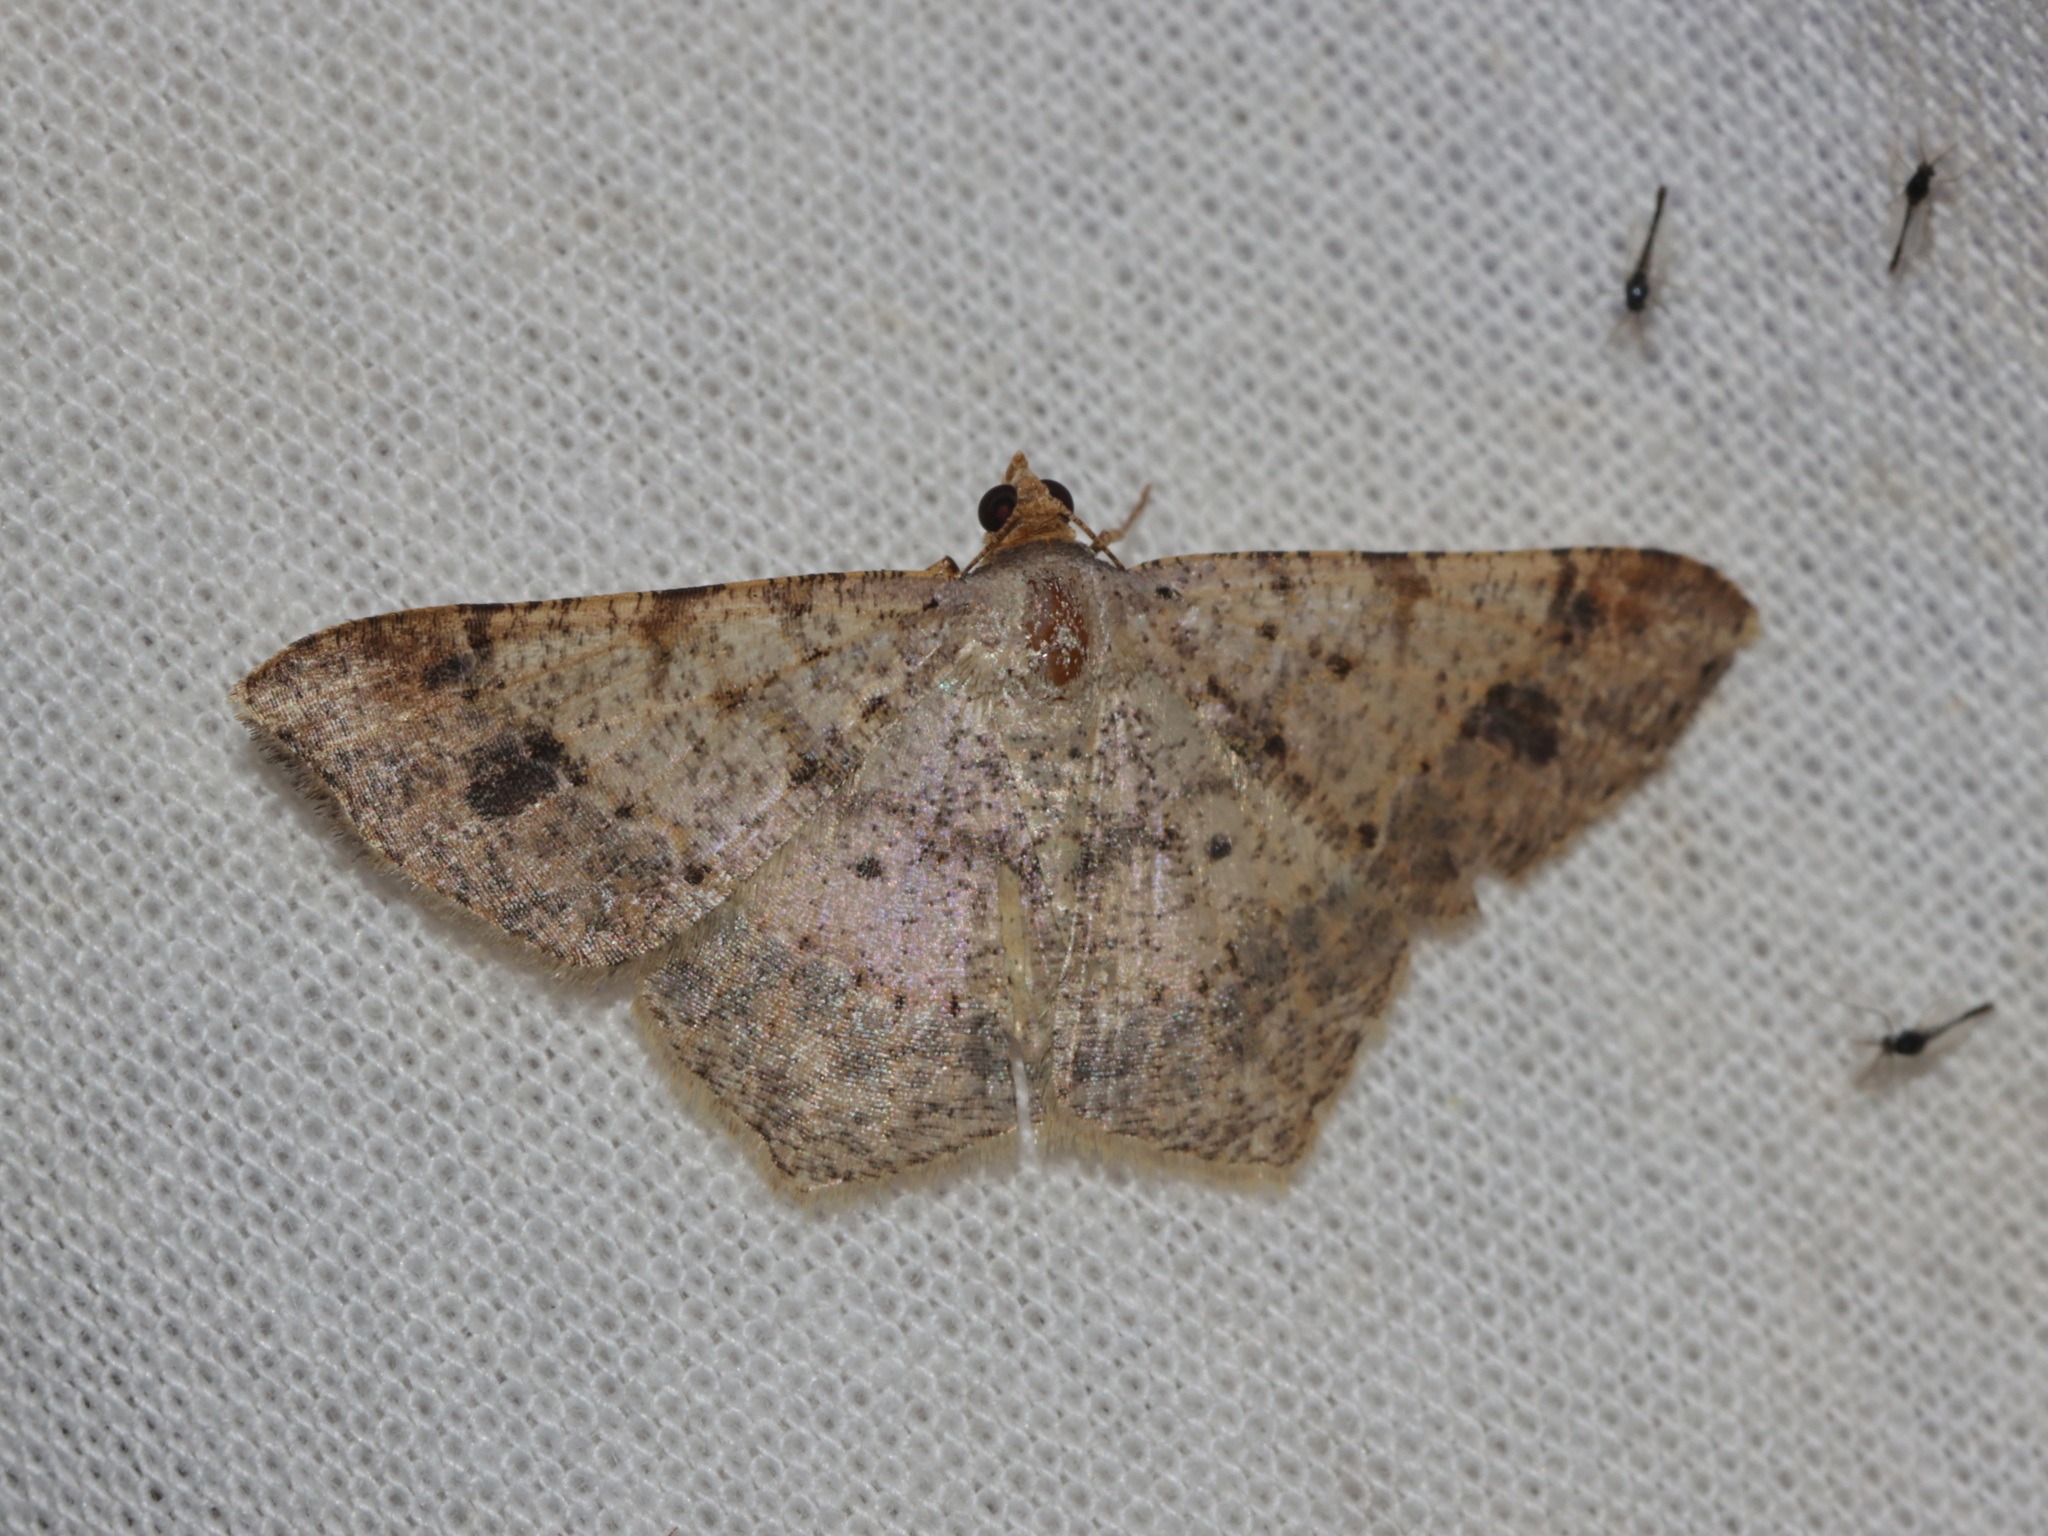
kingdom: Animalia
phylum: Arthropoda
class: Insecta
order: Lepidoptera
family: Geometridae
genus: Macaria
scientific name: Macaria abydata
